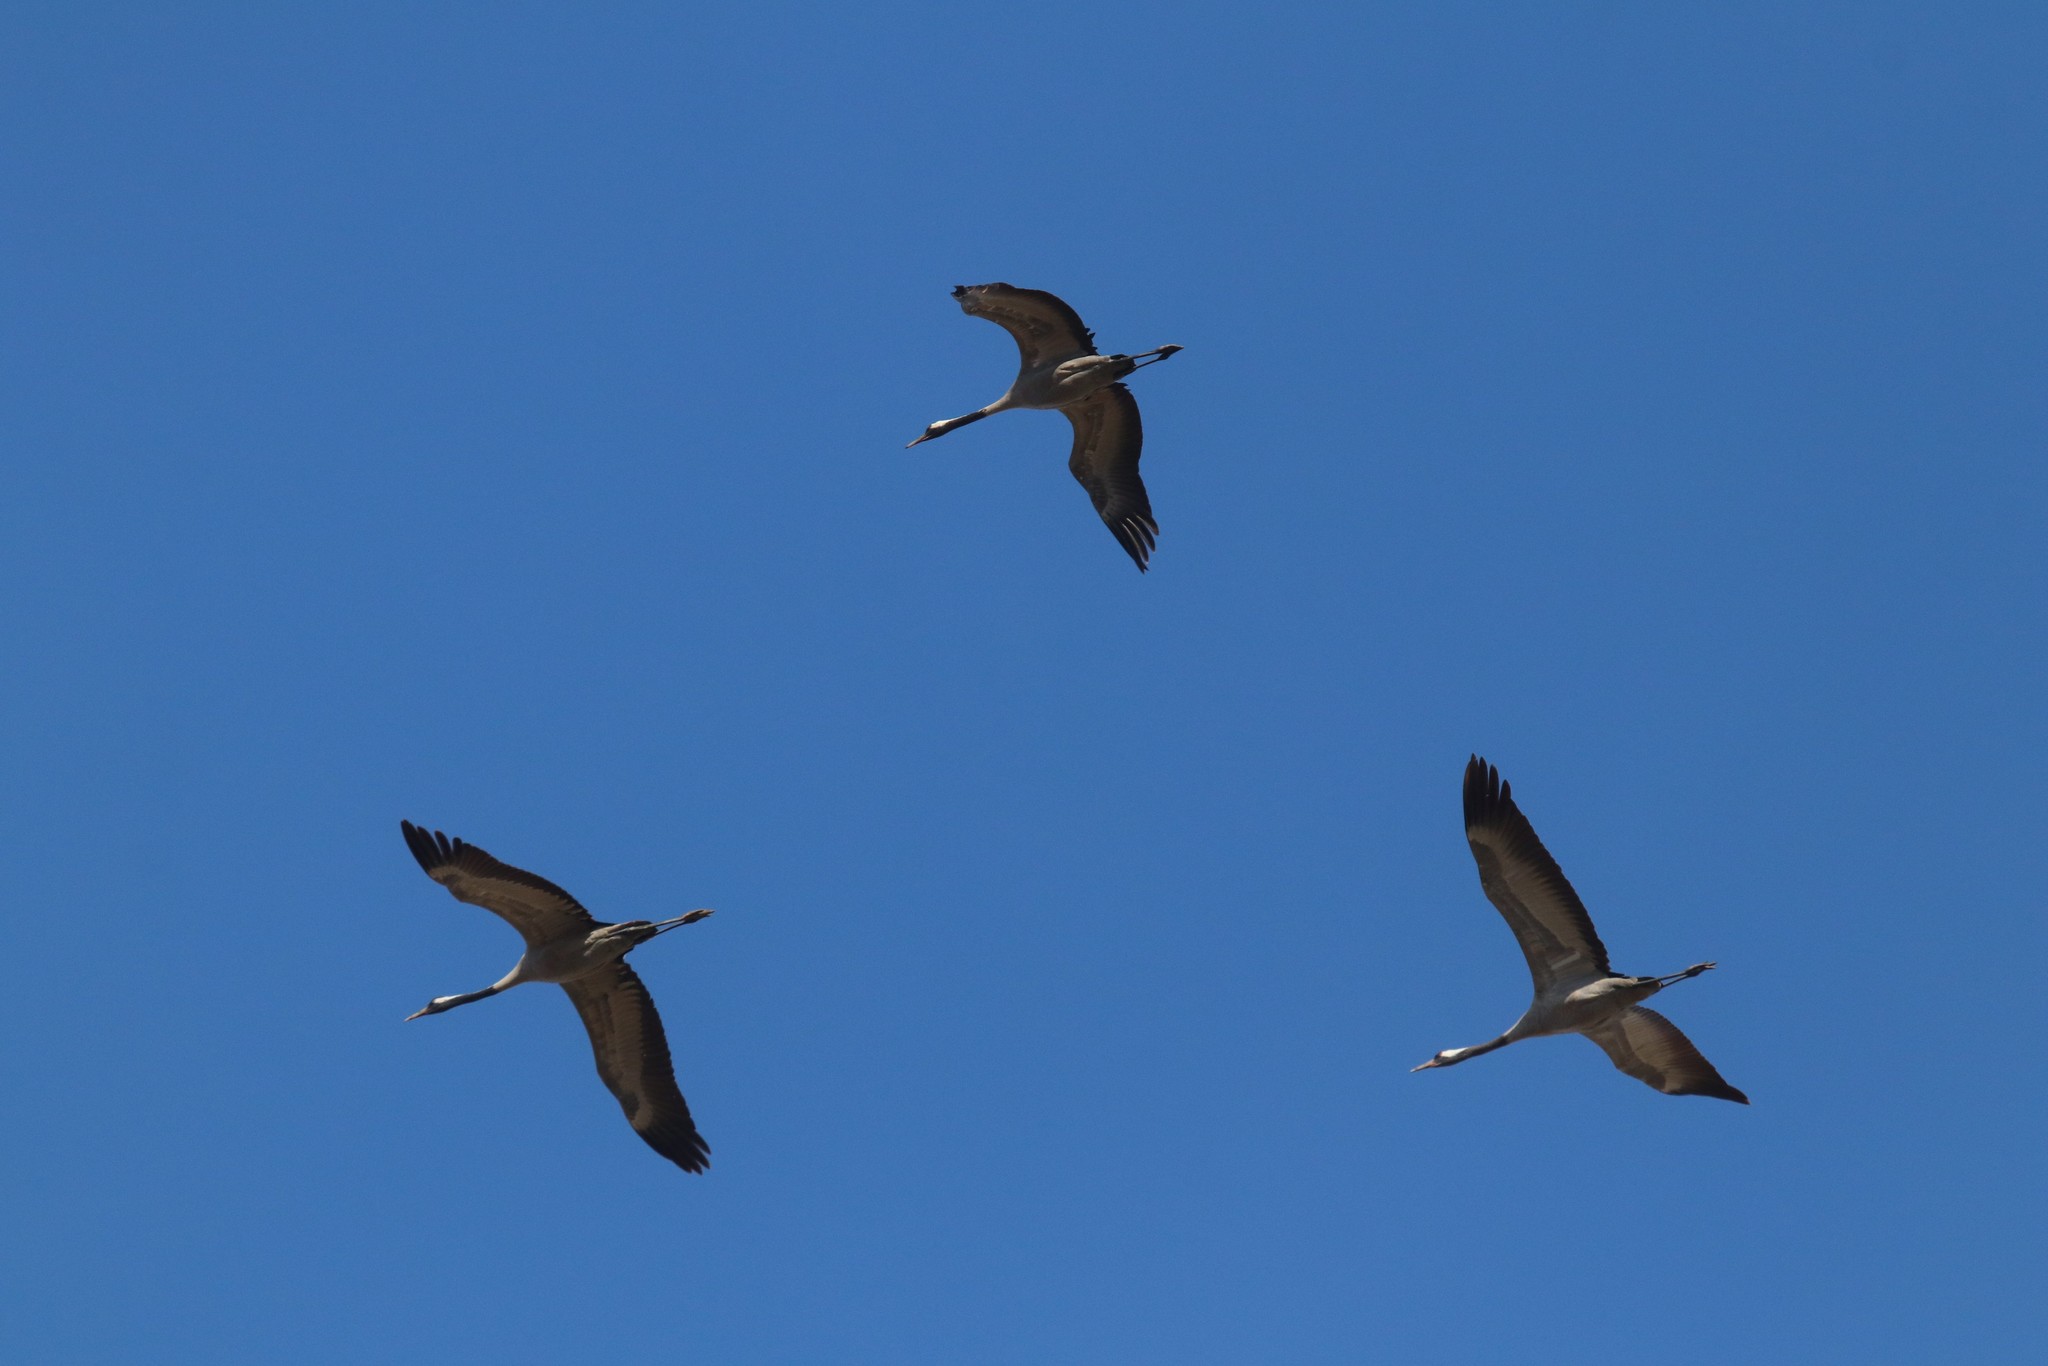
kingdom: Animalia
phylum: Chordata
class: Aves
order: Gruiformes
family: Gruidae
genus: Grus
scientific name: Grus grus
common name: Common crane
